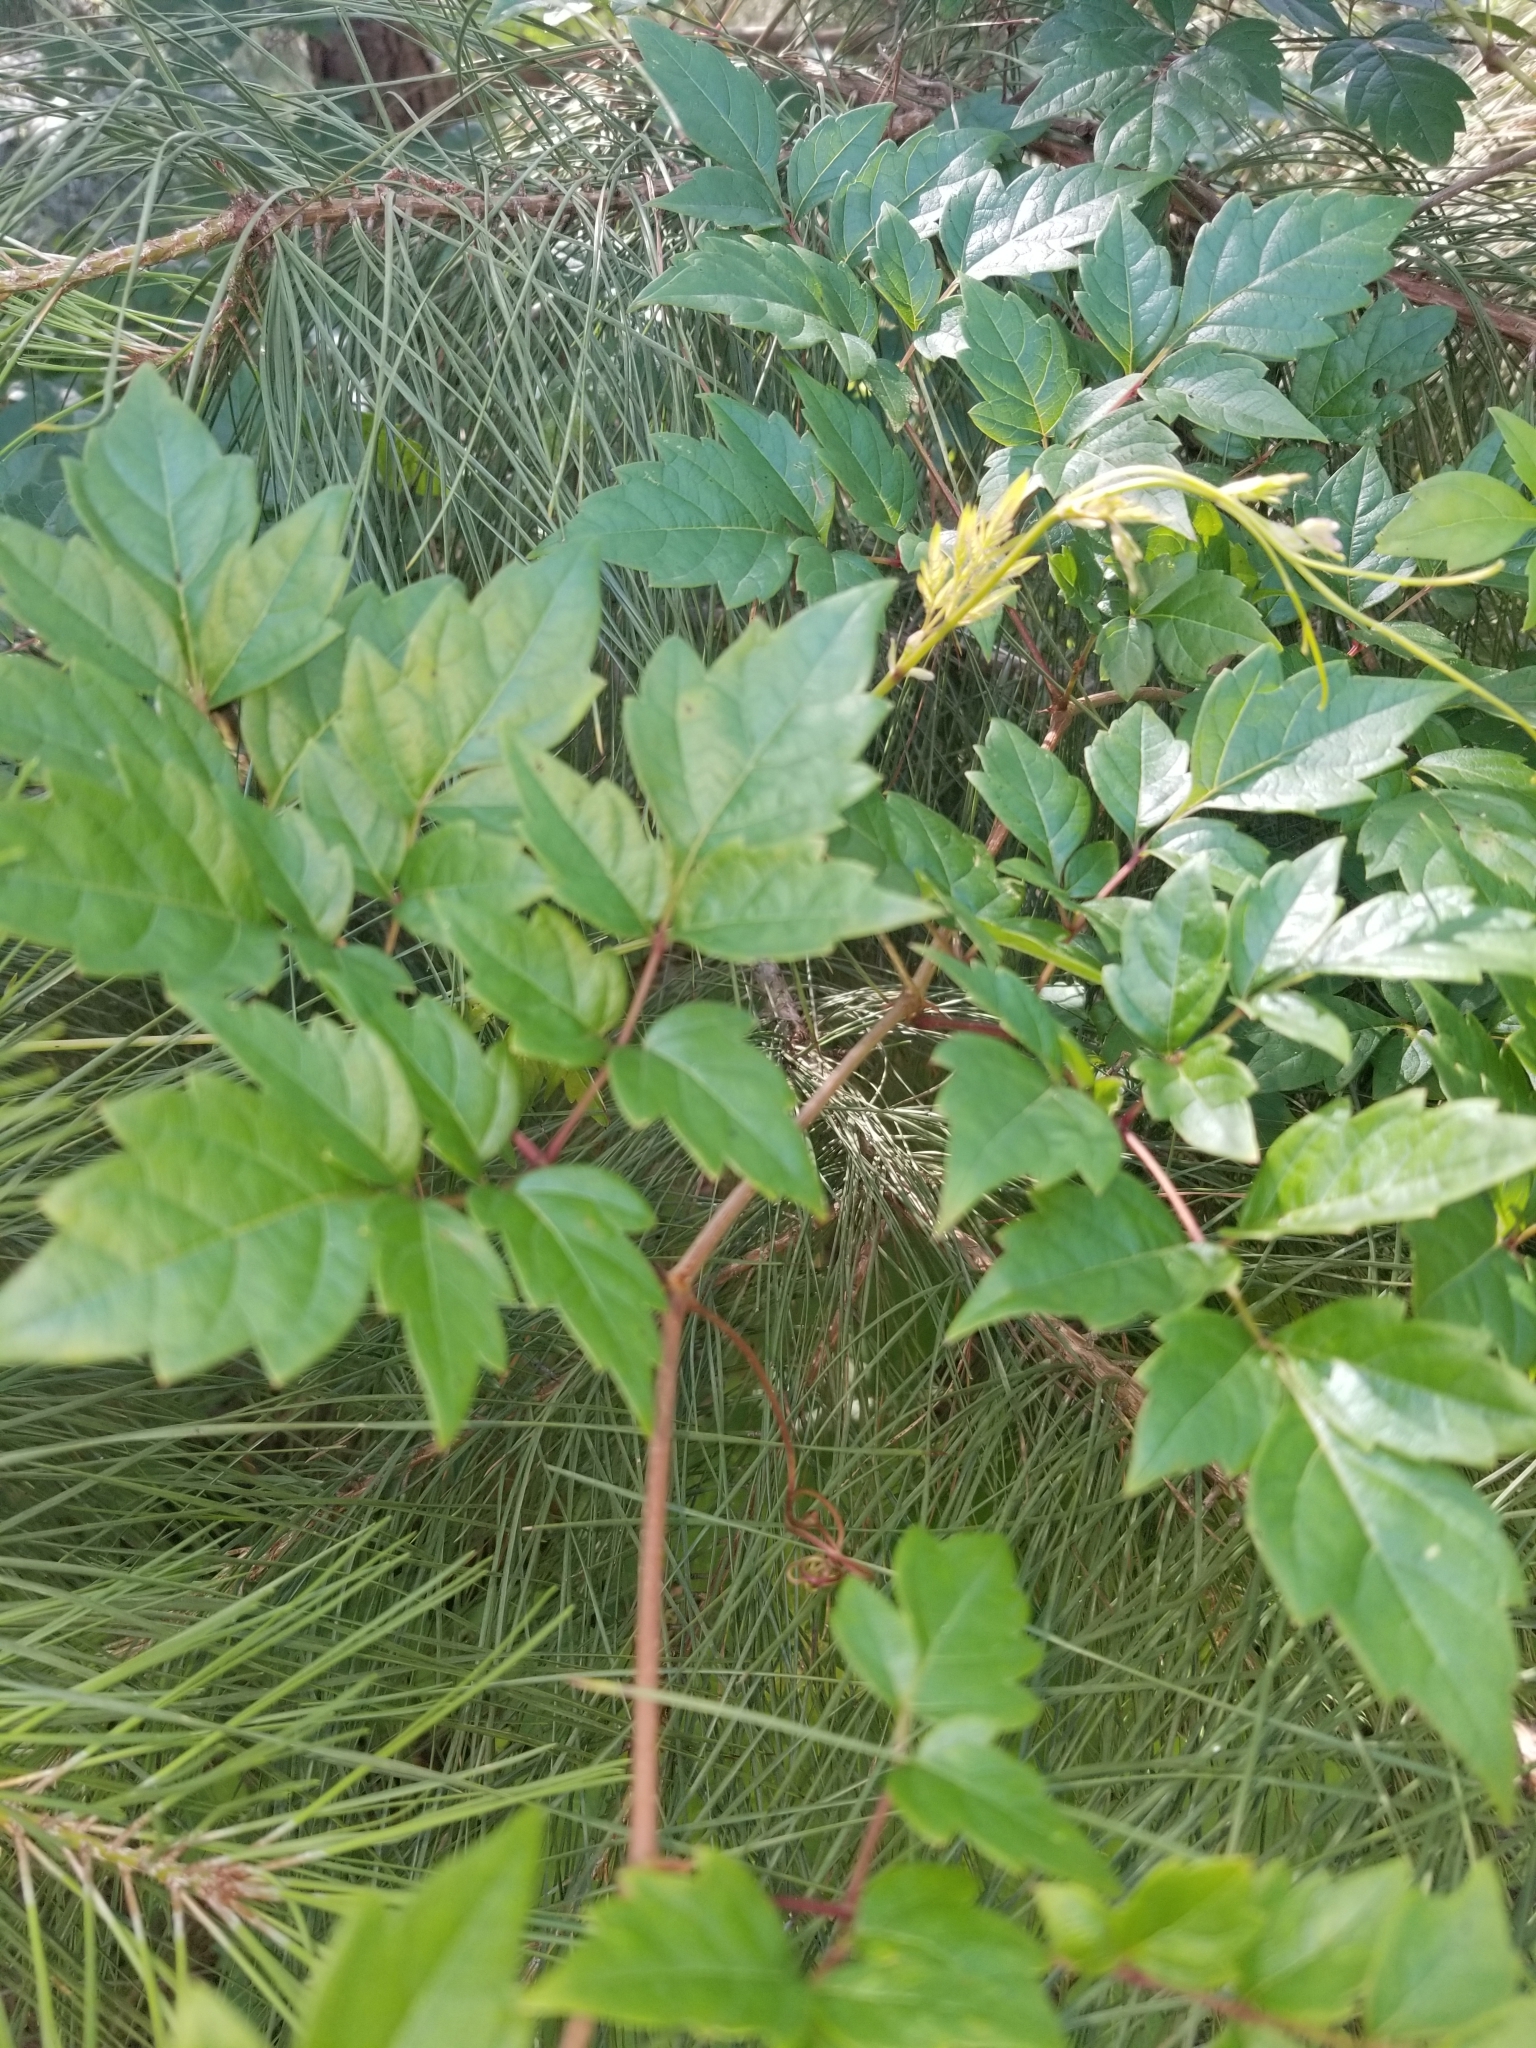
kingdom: Plantae
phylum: Tracheophyta
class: Magnoliopsida
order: Vitales
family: Vitaceae
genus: Nekemias
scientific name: Nekemias arborea
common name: Peppervine
